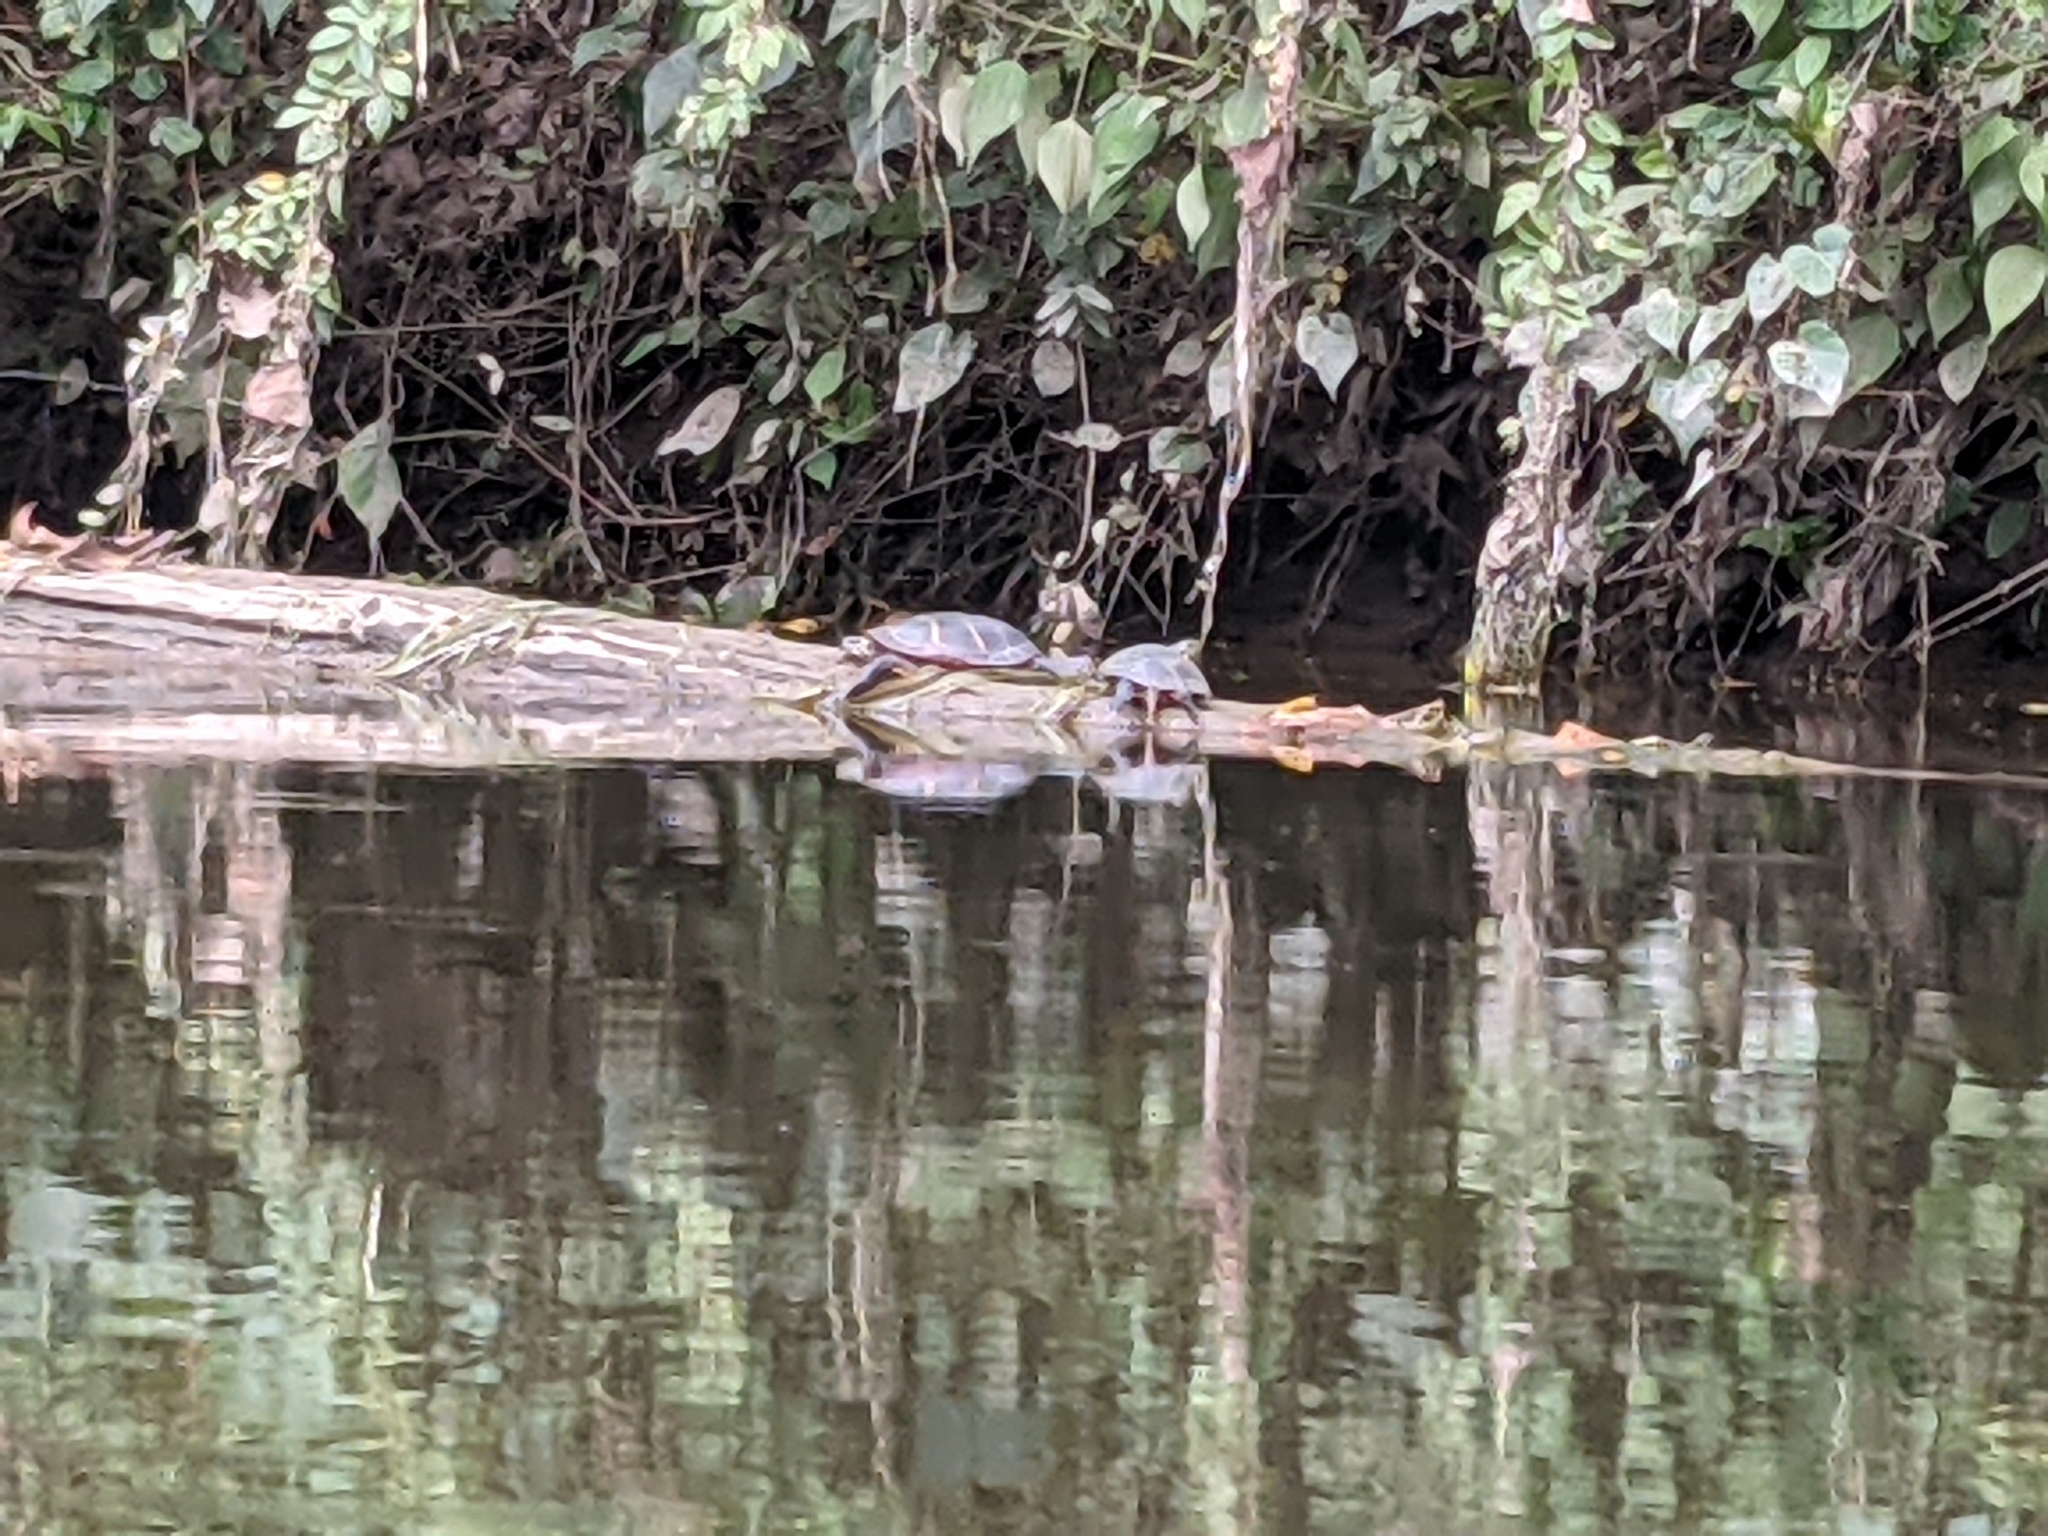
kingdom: Animalia
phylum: Chordata
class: Testudines
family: Emydidae
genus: Chrysemys
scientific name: Chrysemys picta
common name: Painted turtle
